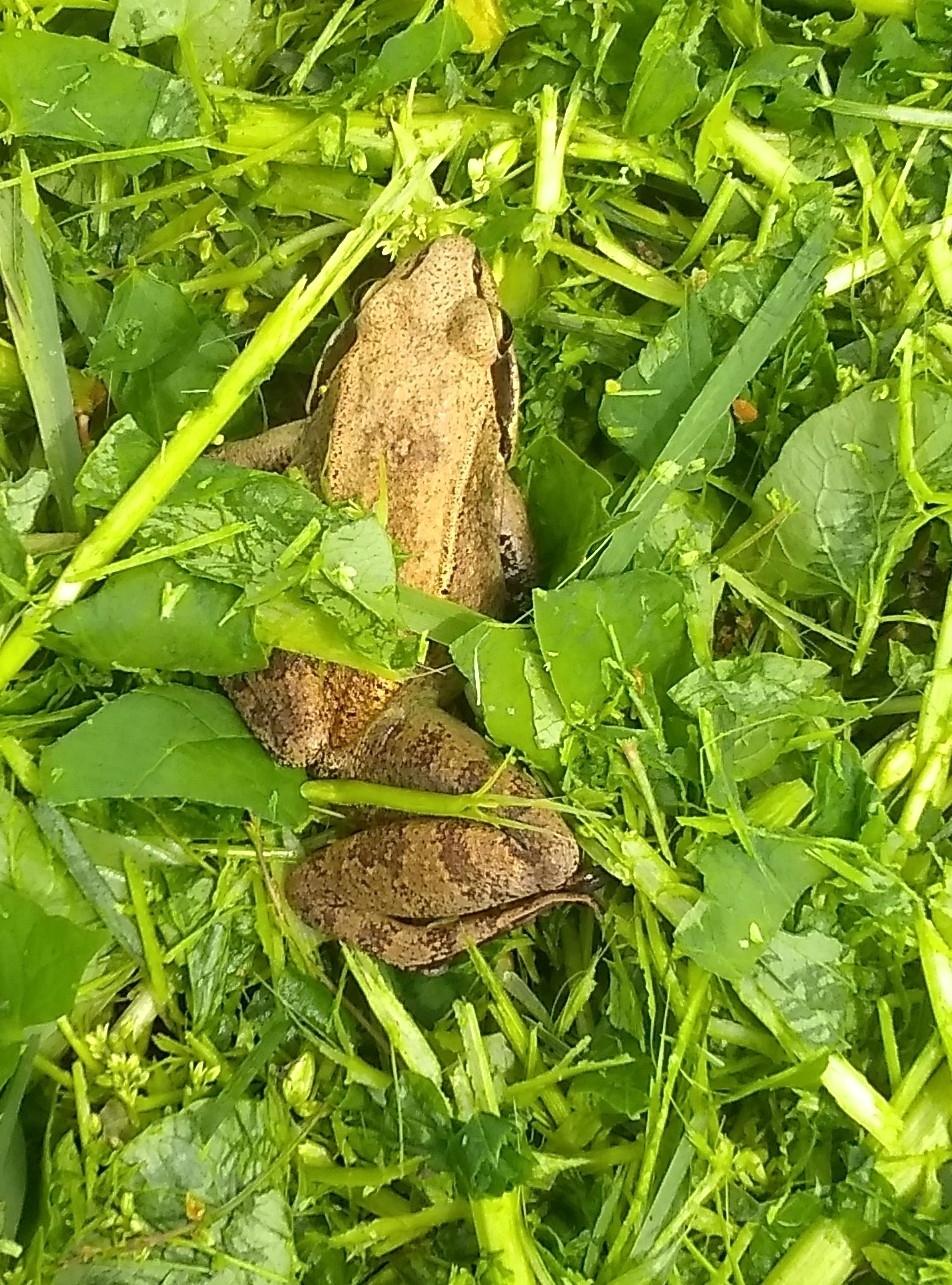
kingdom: Animalia
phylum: Chordata
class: Amphibia
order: Anura
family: Ranidae
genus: Lithobates
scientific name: Lithobates sylvaticus
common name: Wood frog
